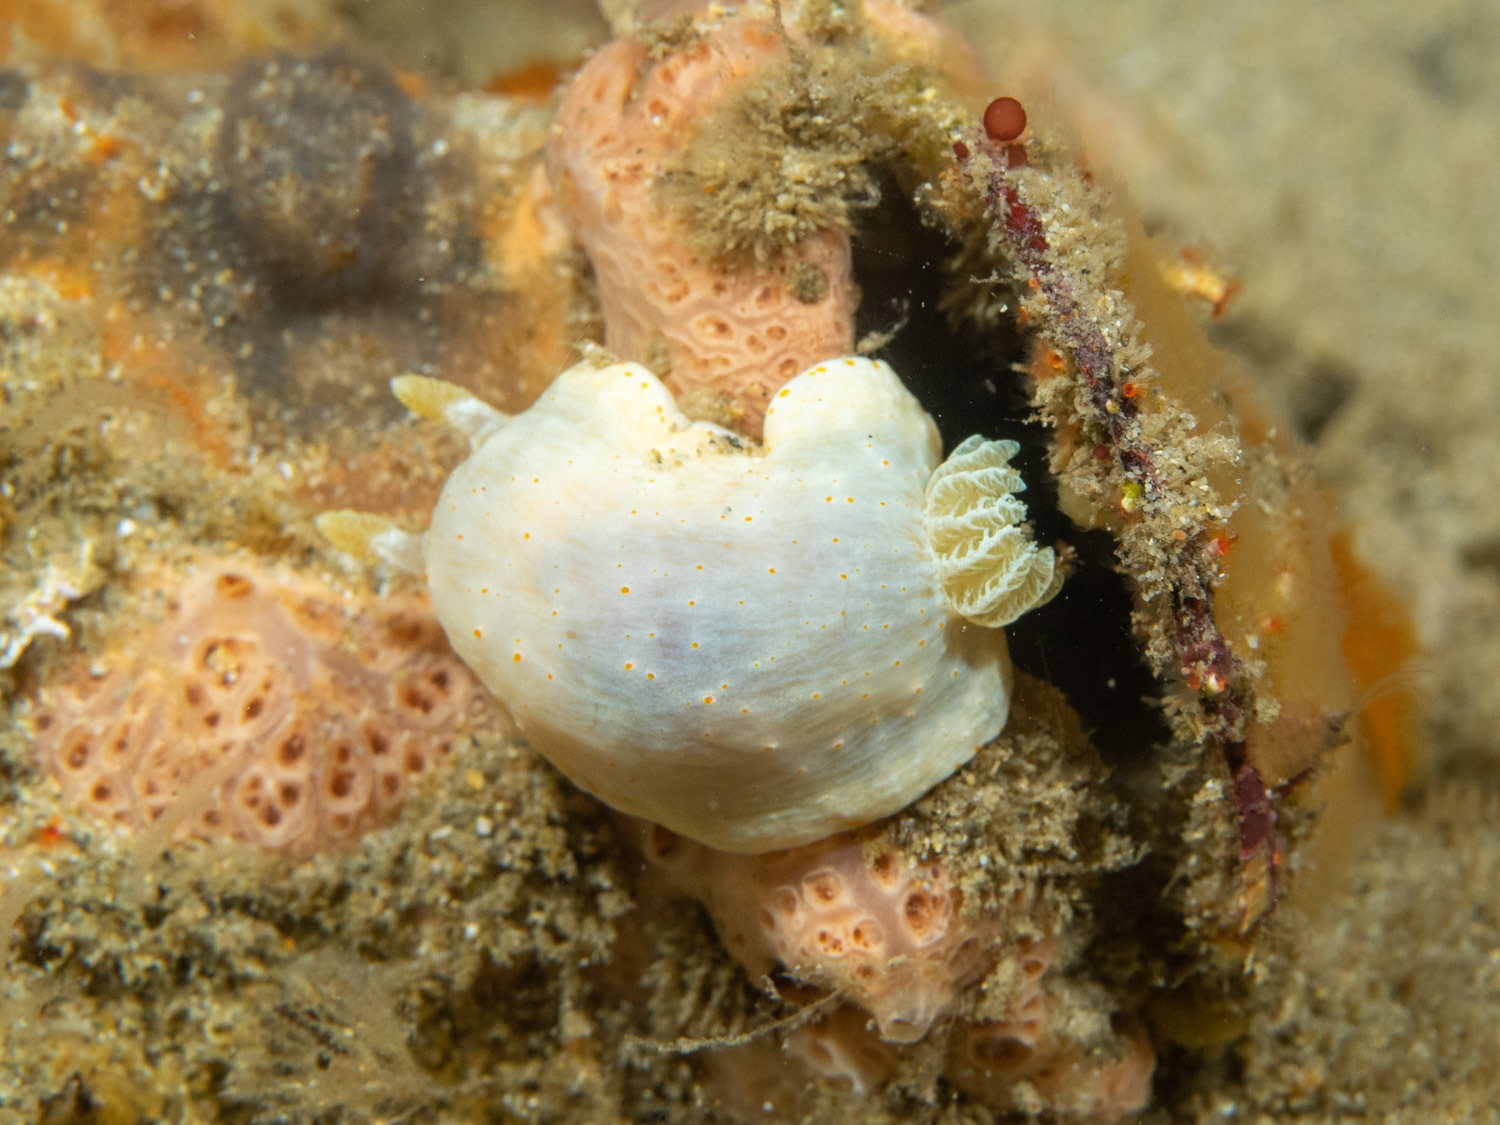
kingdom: Animalia
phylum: Mollusca
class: Gastropoda
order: Nudibranchia
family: Chromodorididae
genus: Goniobranchus
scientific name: Goniobranchus epicurius
